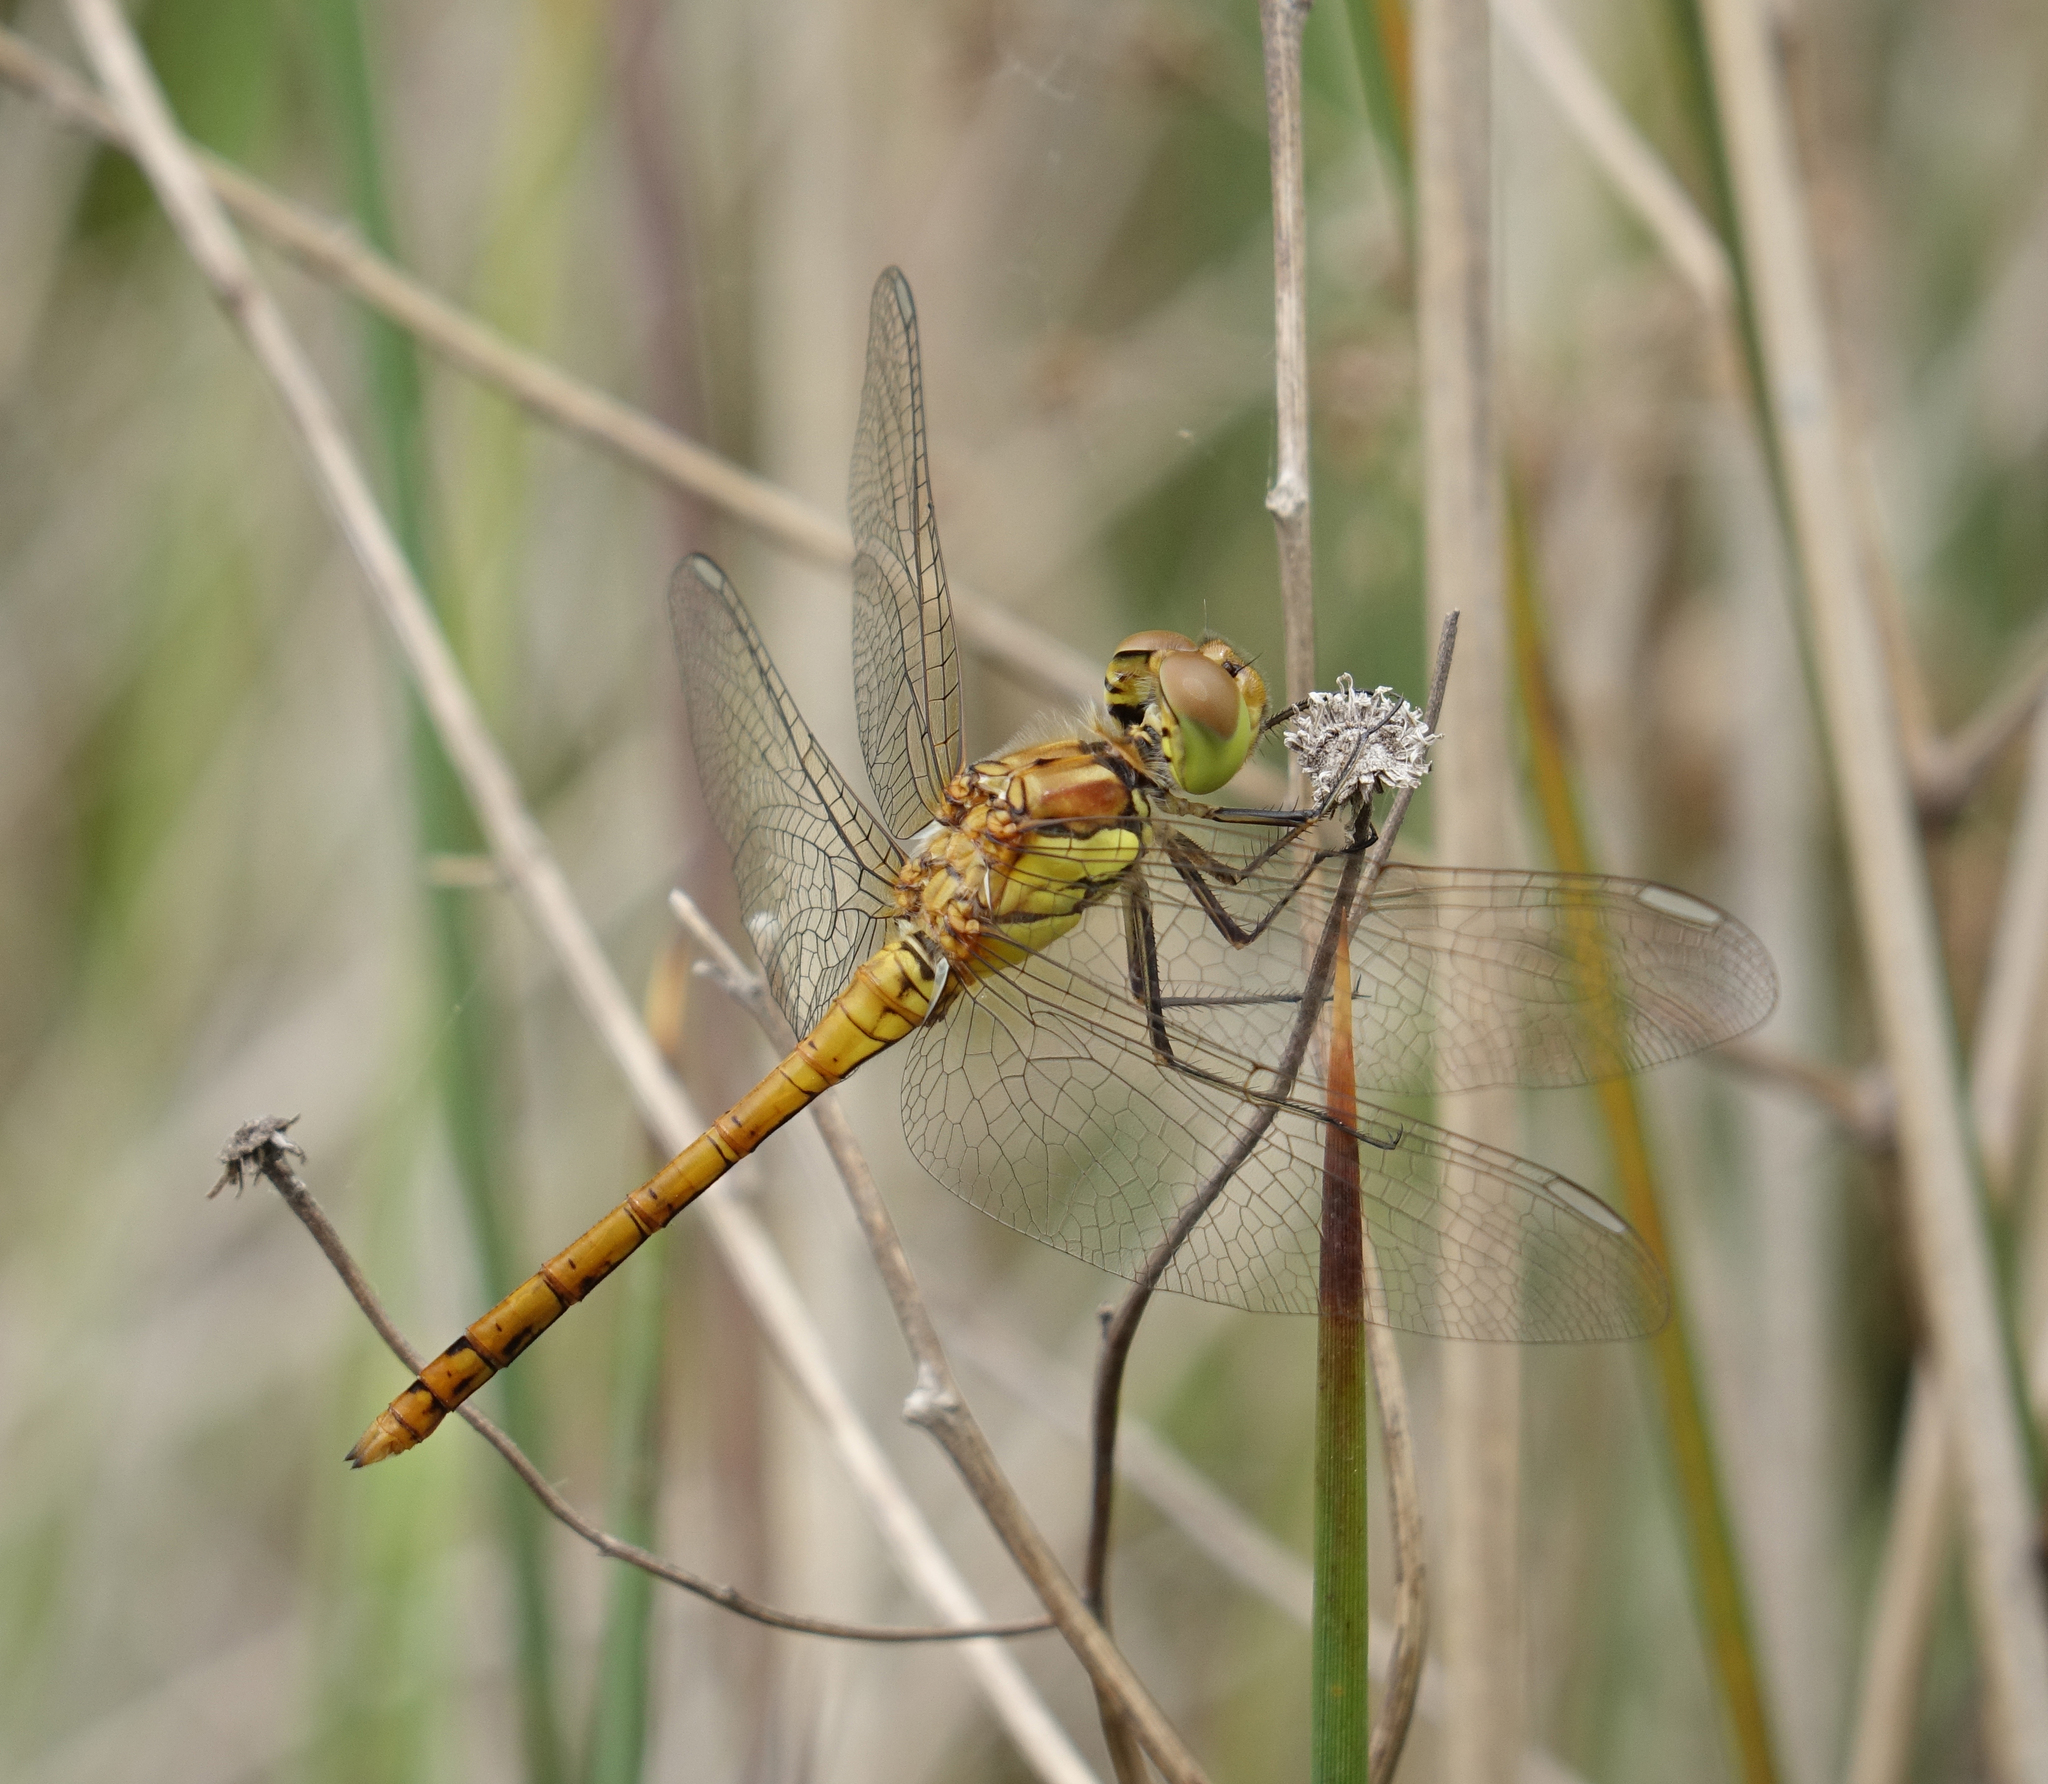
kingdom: Animalia
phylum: Arthropoda
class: Insecta
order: Odonata
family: Libellulidae
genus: Sympetrum
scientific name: Sympetrum striolatum
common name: Common darter
